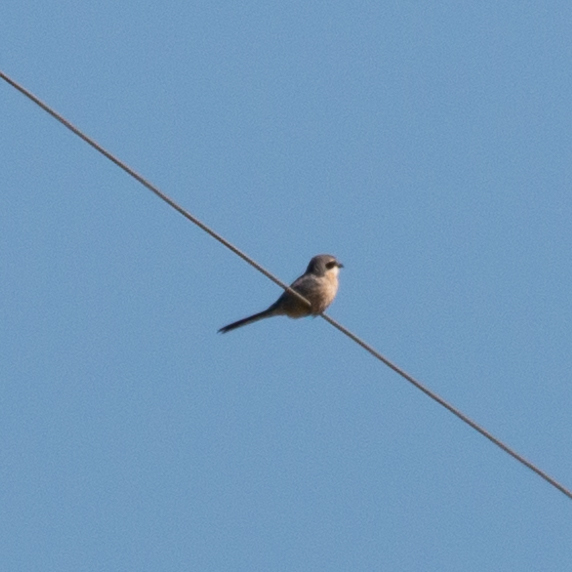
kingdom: Animalia
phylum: Chordata
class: Aves
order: Passeriformes
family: Laniidae
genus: Lanius
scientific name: Lanius meridionalis
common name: Iberian grey shrike
